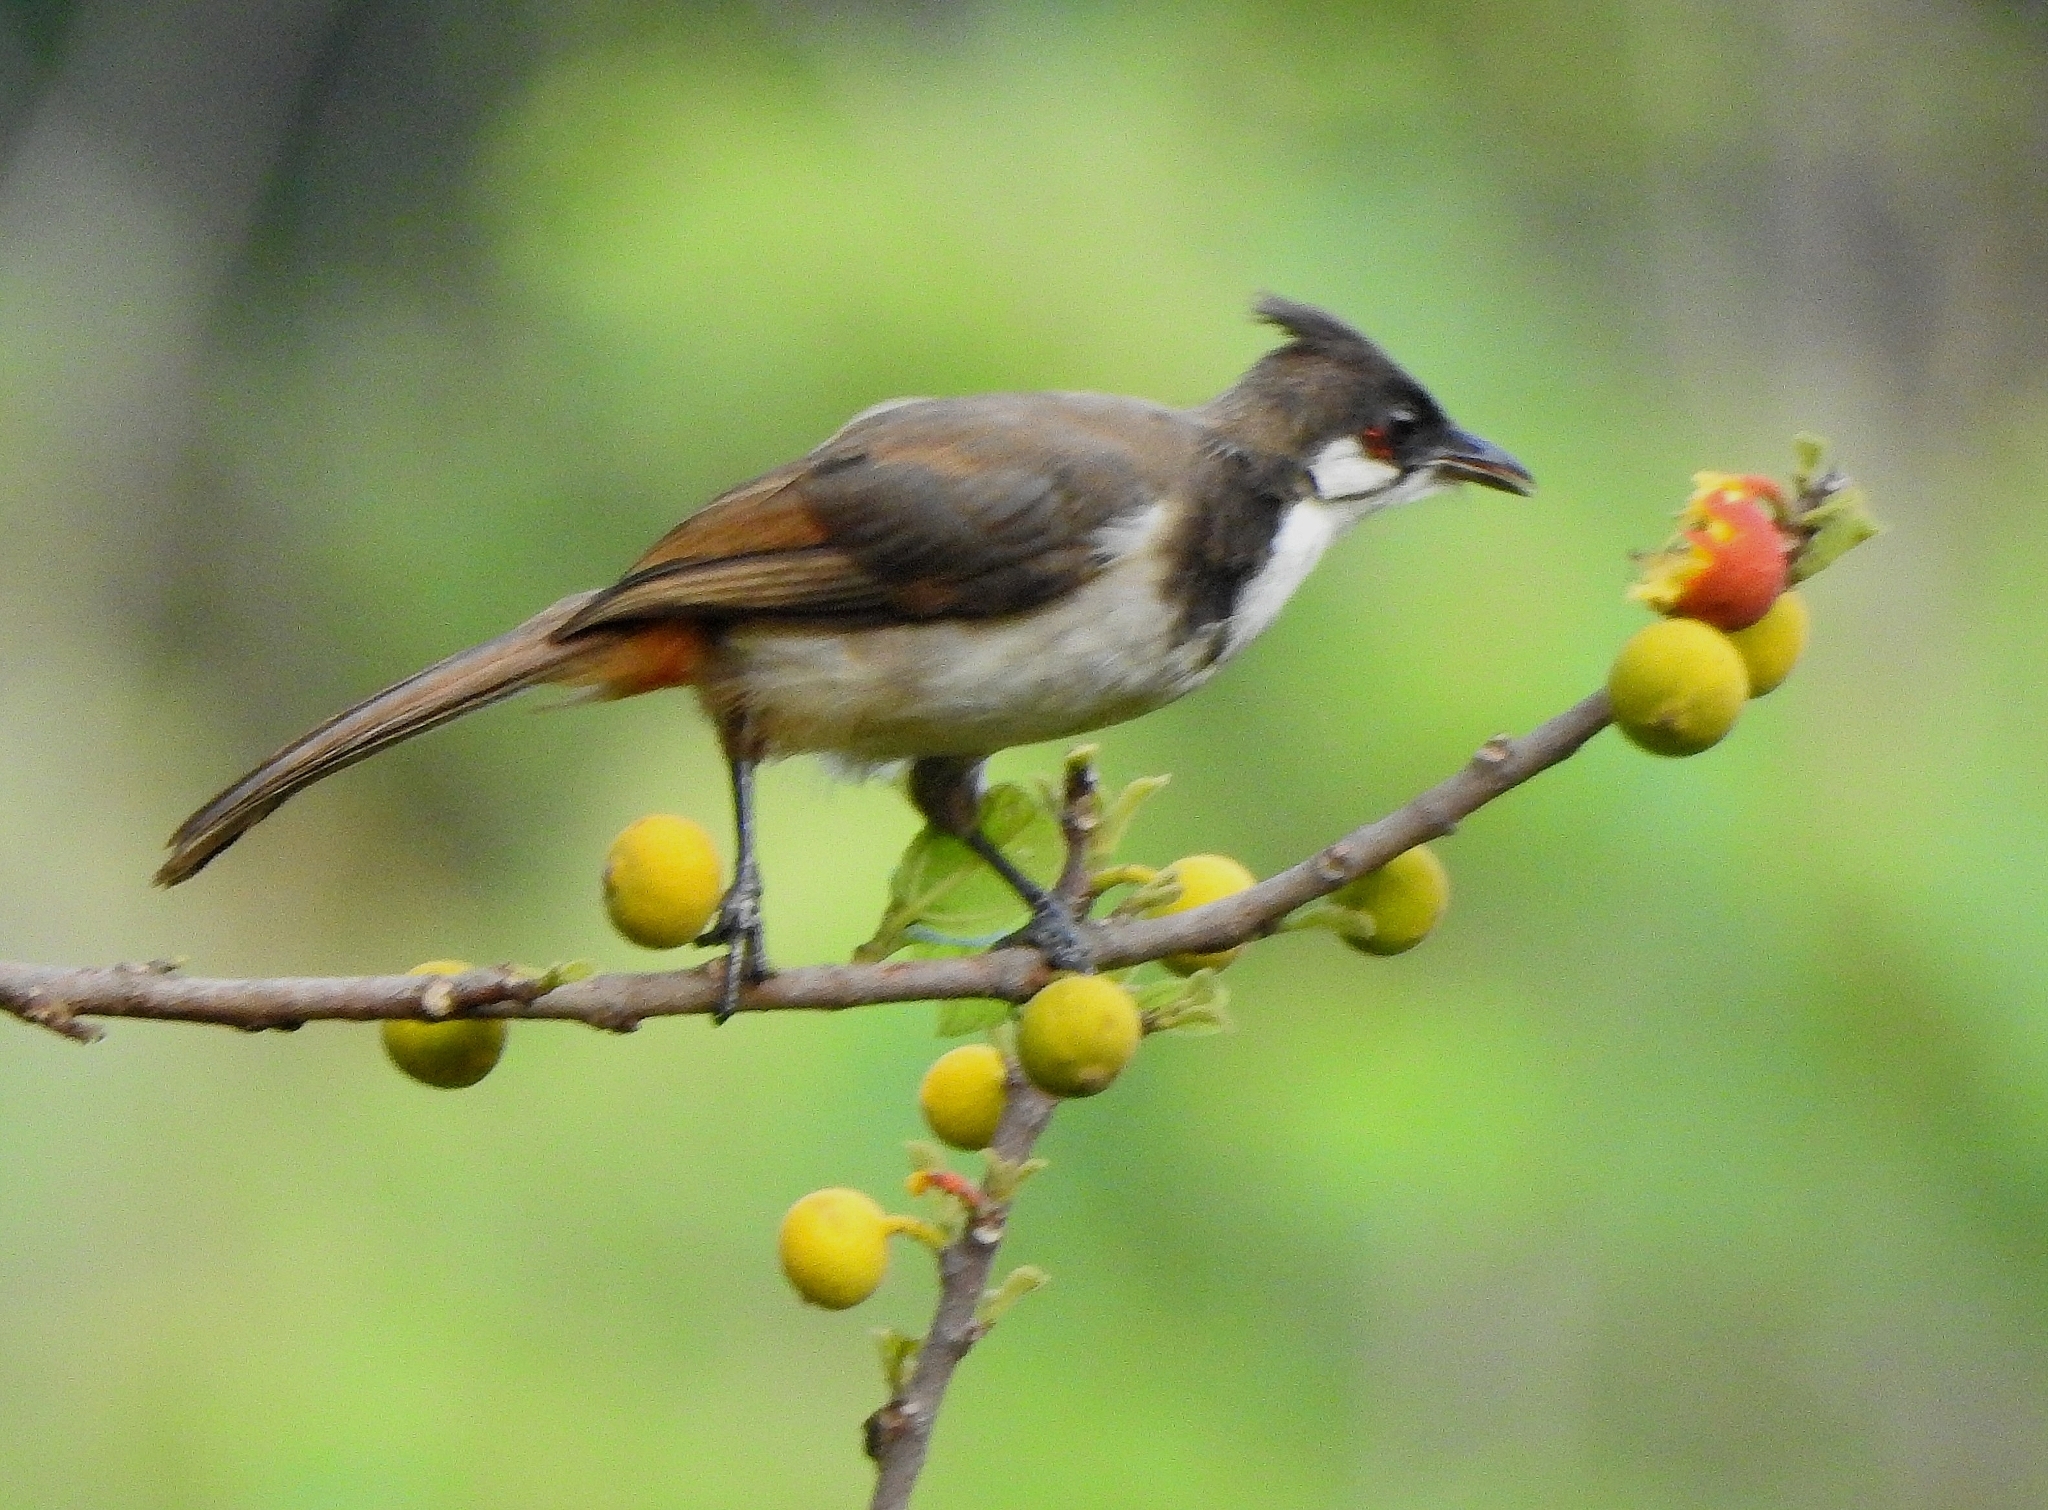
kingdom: Animalia
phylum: Chordata
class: Aves
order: Passeriformes
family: Pycnonotidae
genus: Pycnonotus
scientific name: Pycnonotus jocosus
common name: Red-whiskered bulbul
